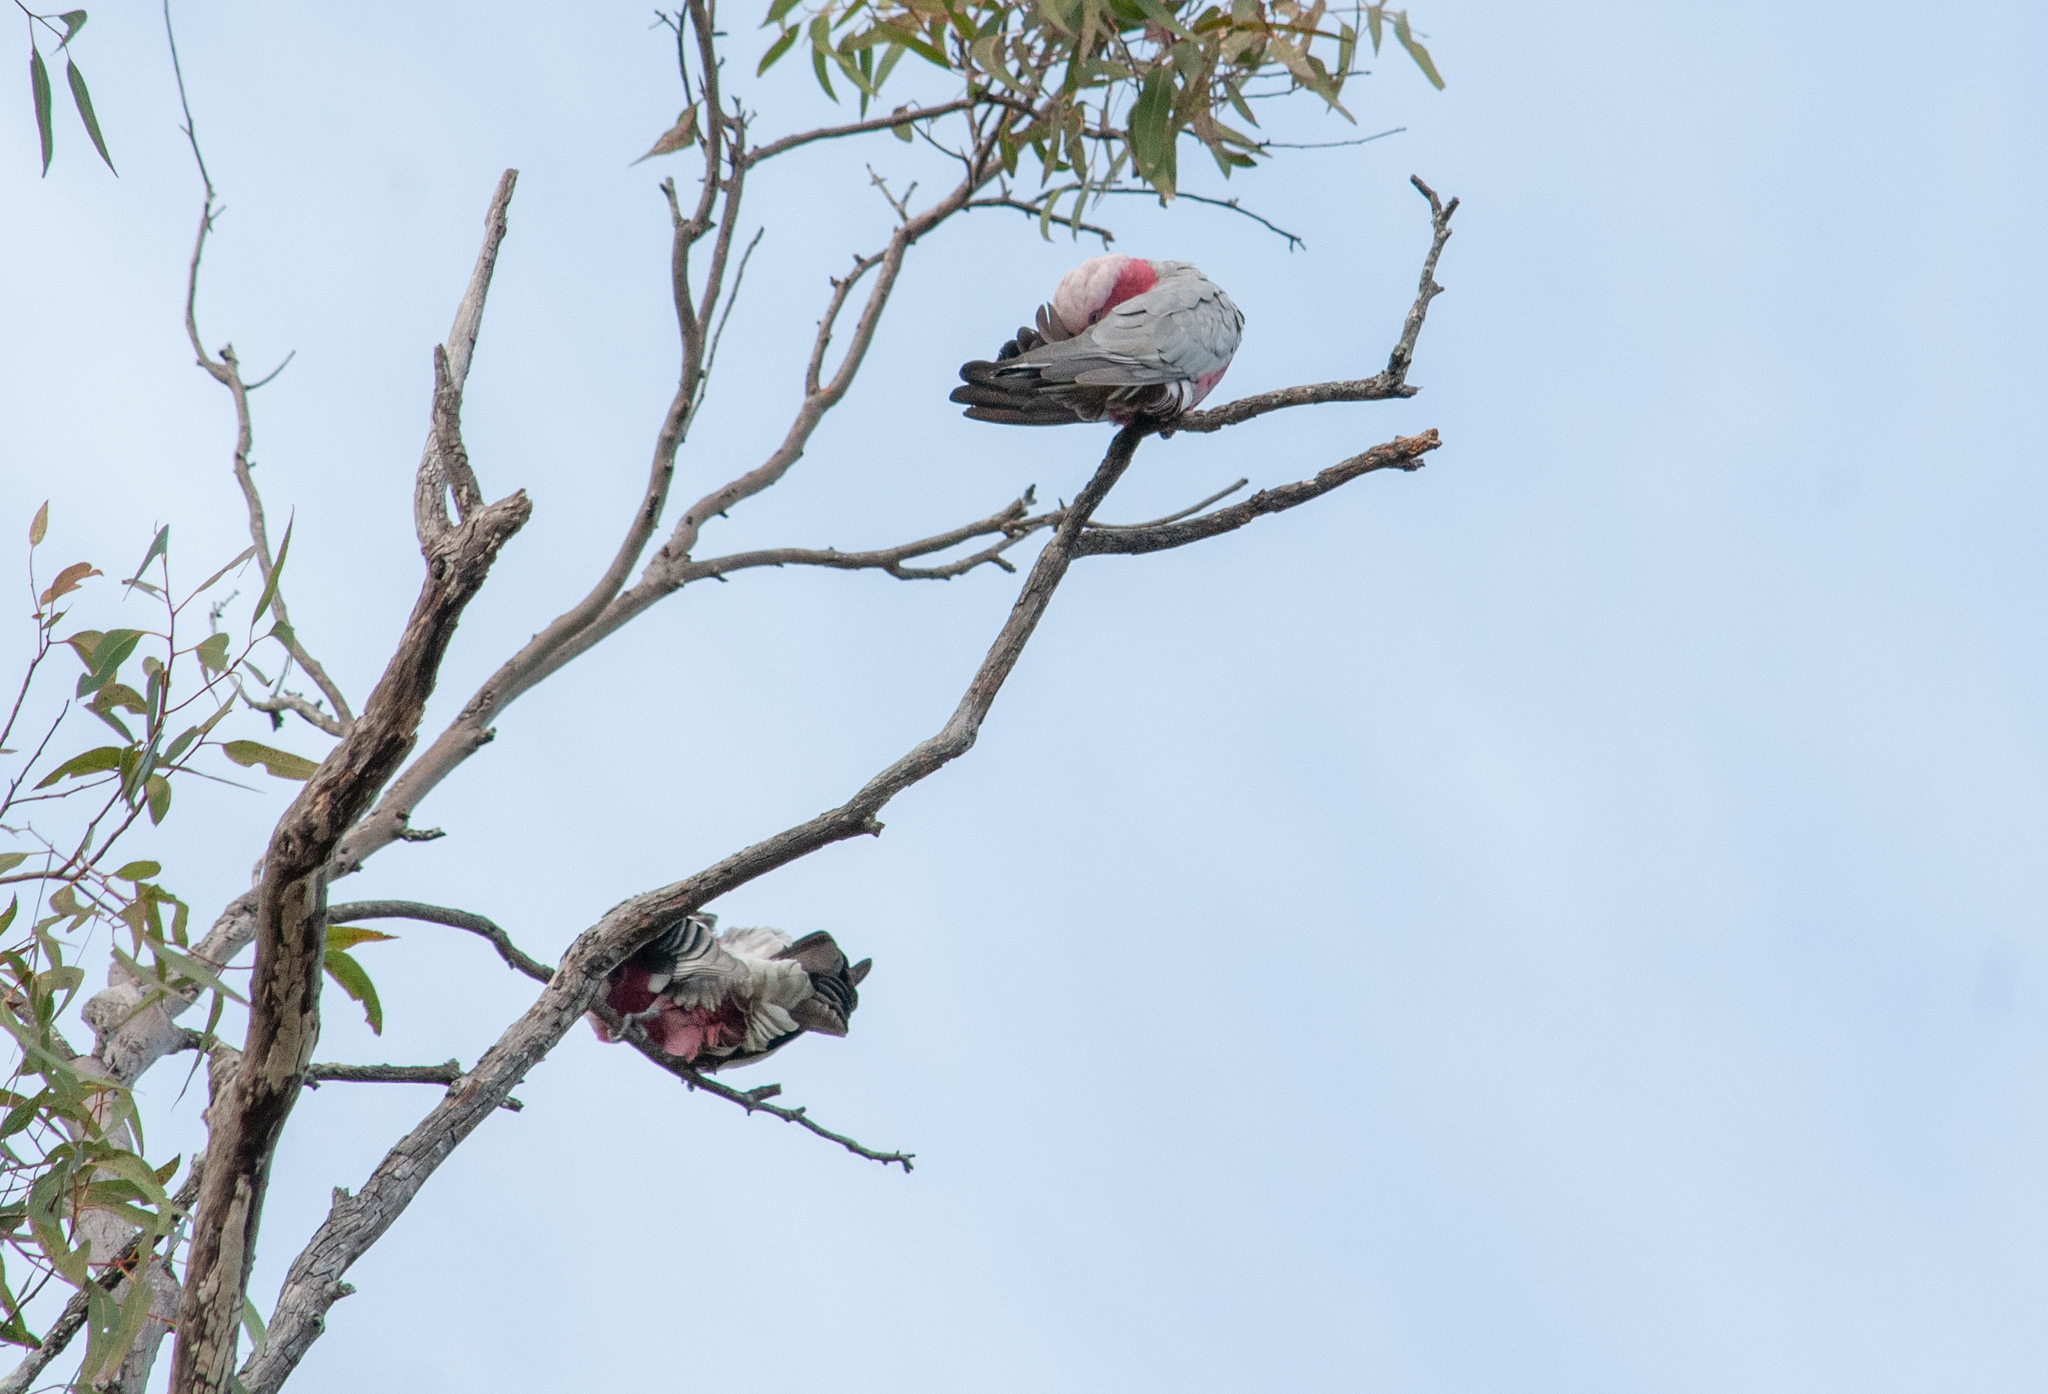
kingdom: Animalia
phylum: Chordata
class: Aves
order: Psittaciformes
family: Psittacidae
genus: Eolophus
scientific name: Eolophus roseicapilla
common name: Galah
